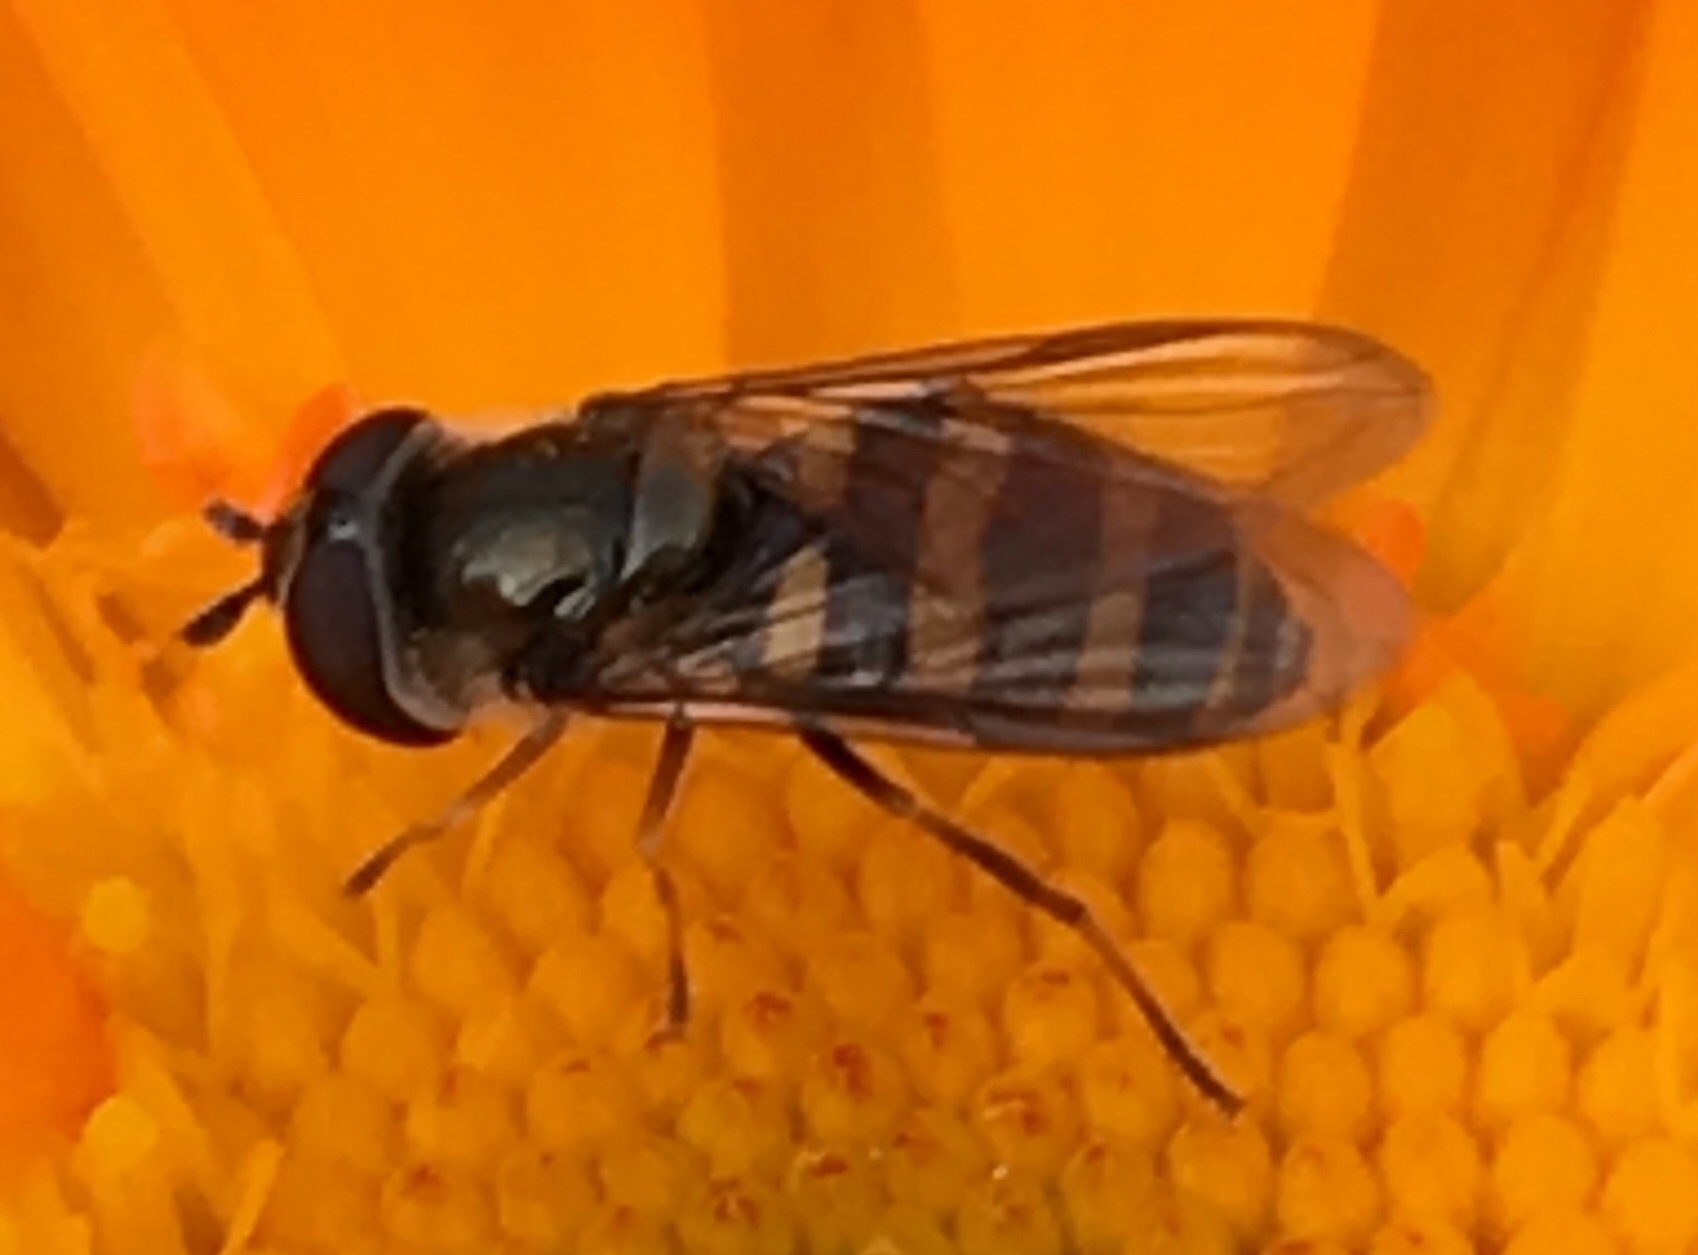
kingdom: Animalia
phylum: Arthropoda
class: Insecta
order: Diptera
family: Syrphidae
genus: Eupeodes
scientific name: Eupeodes
